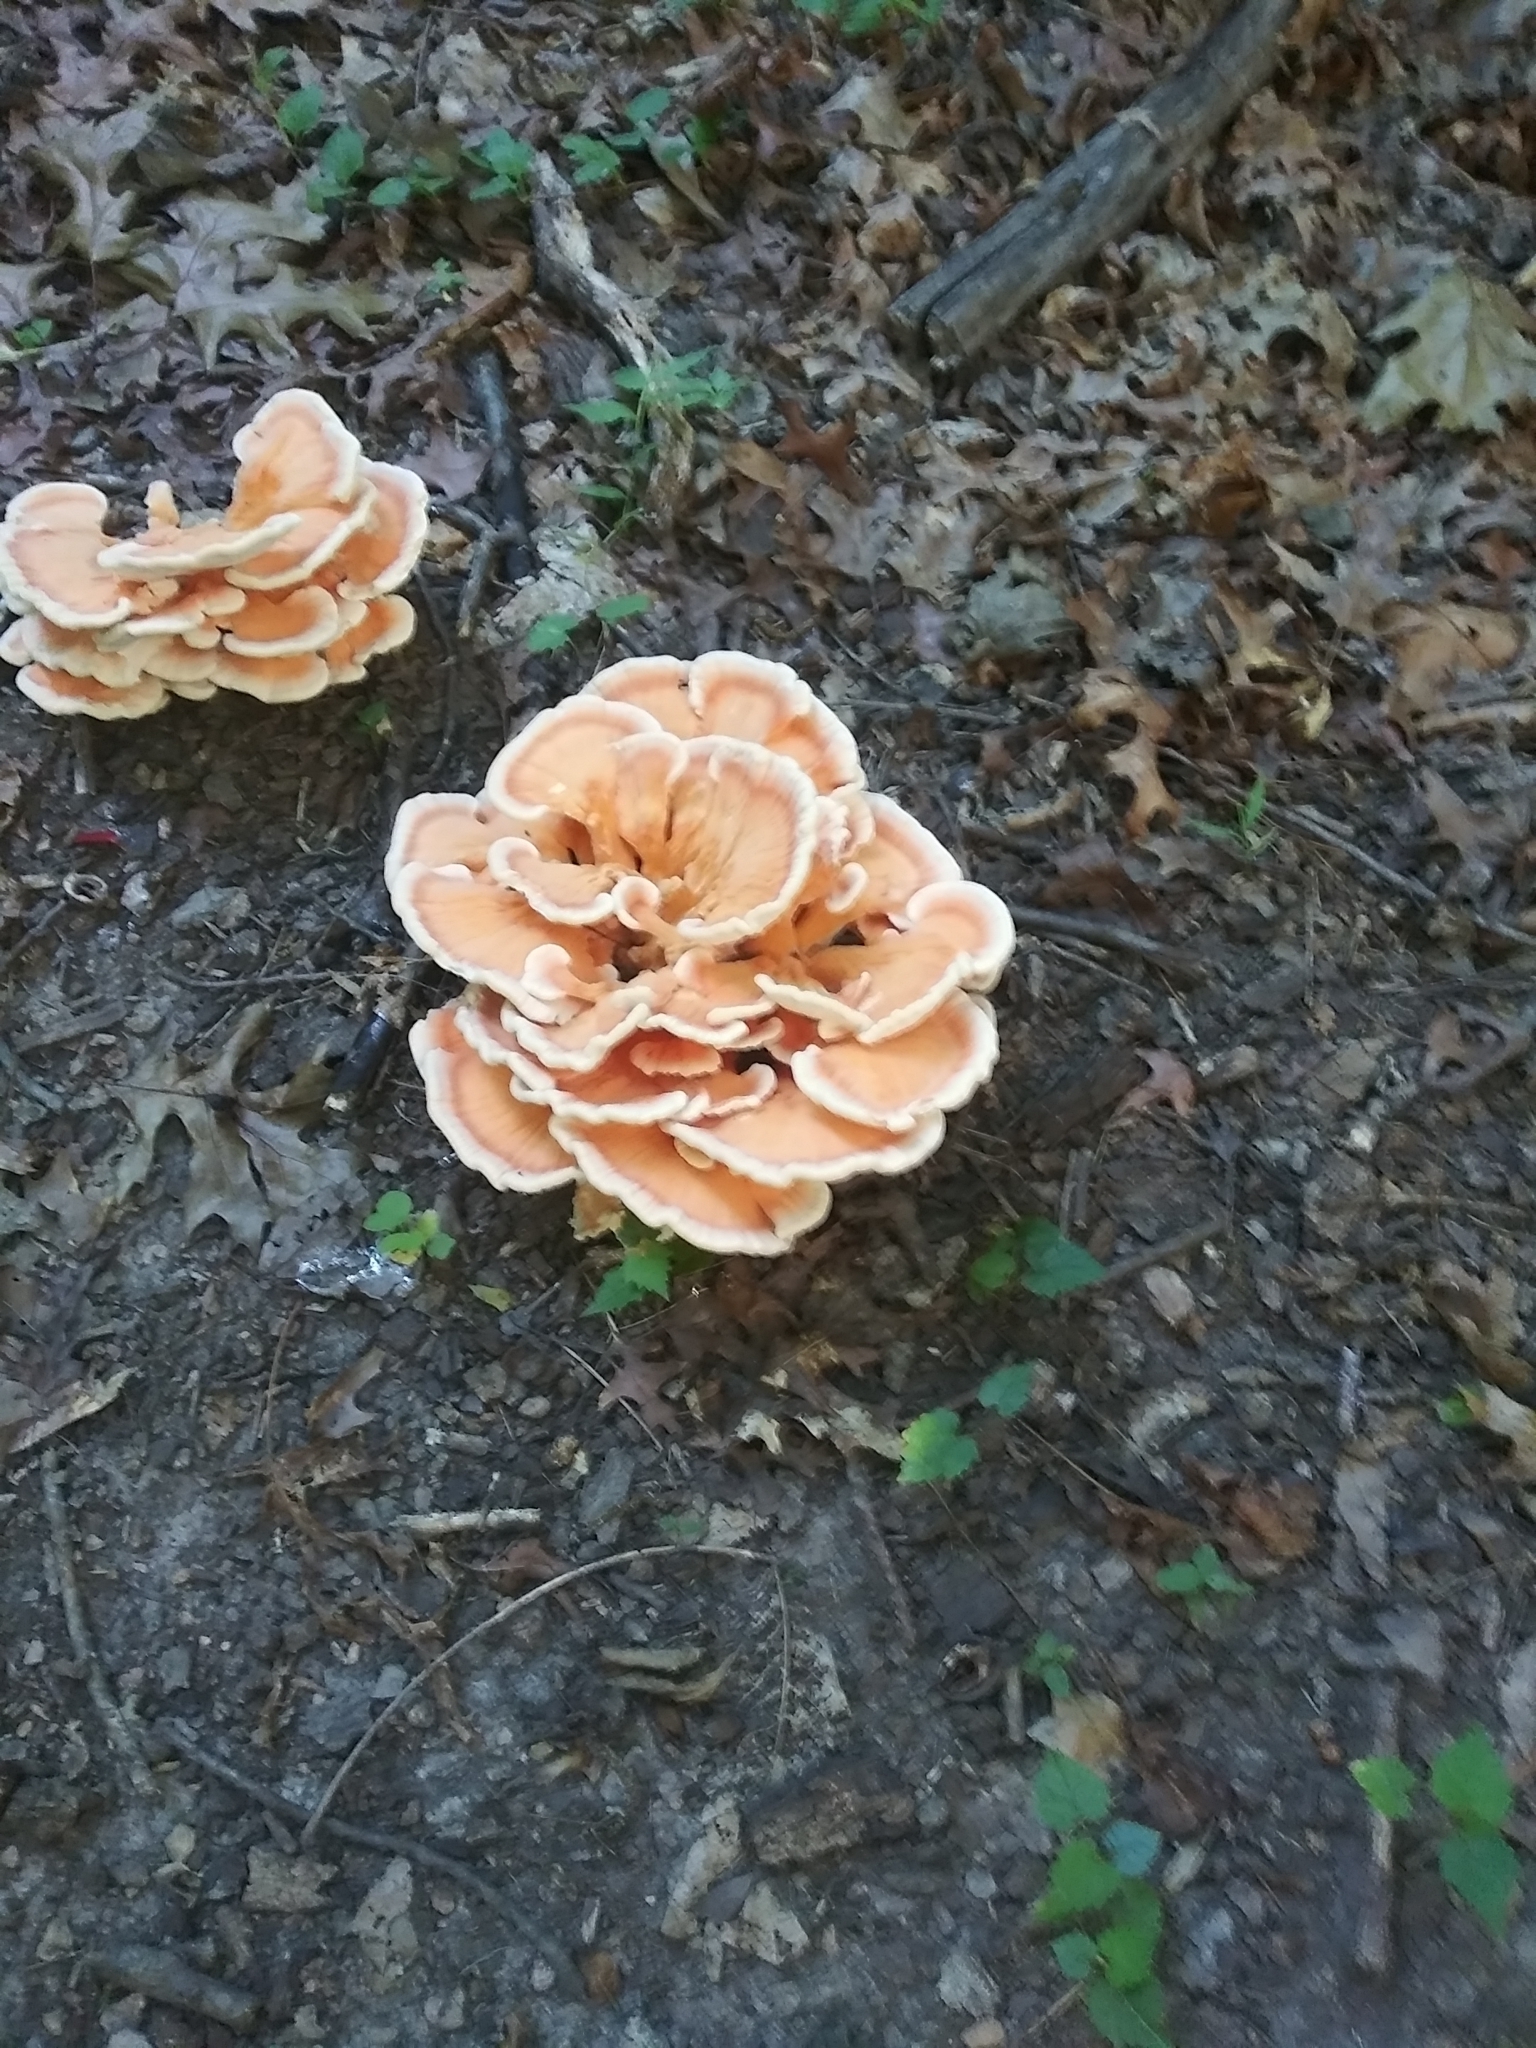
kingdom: Fungi
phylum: Basidiomycota
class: Agaricomycetes
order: Polyporales
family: Laetiporaceae
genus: Laetiporus
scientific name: Laetiporus sulphureus
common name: Chicken of the woods
